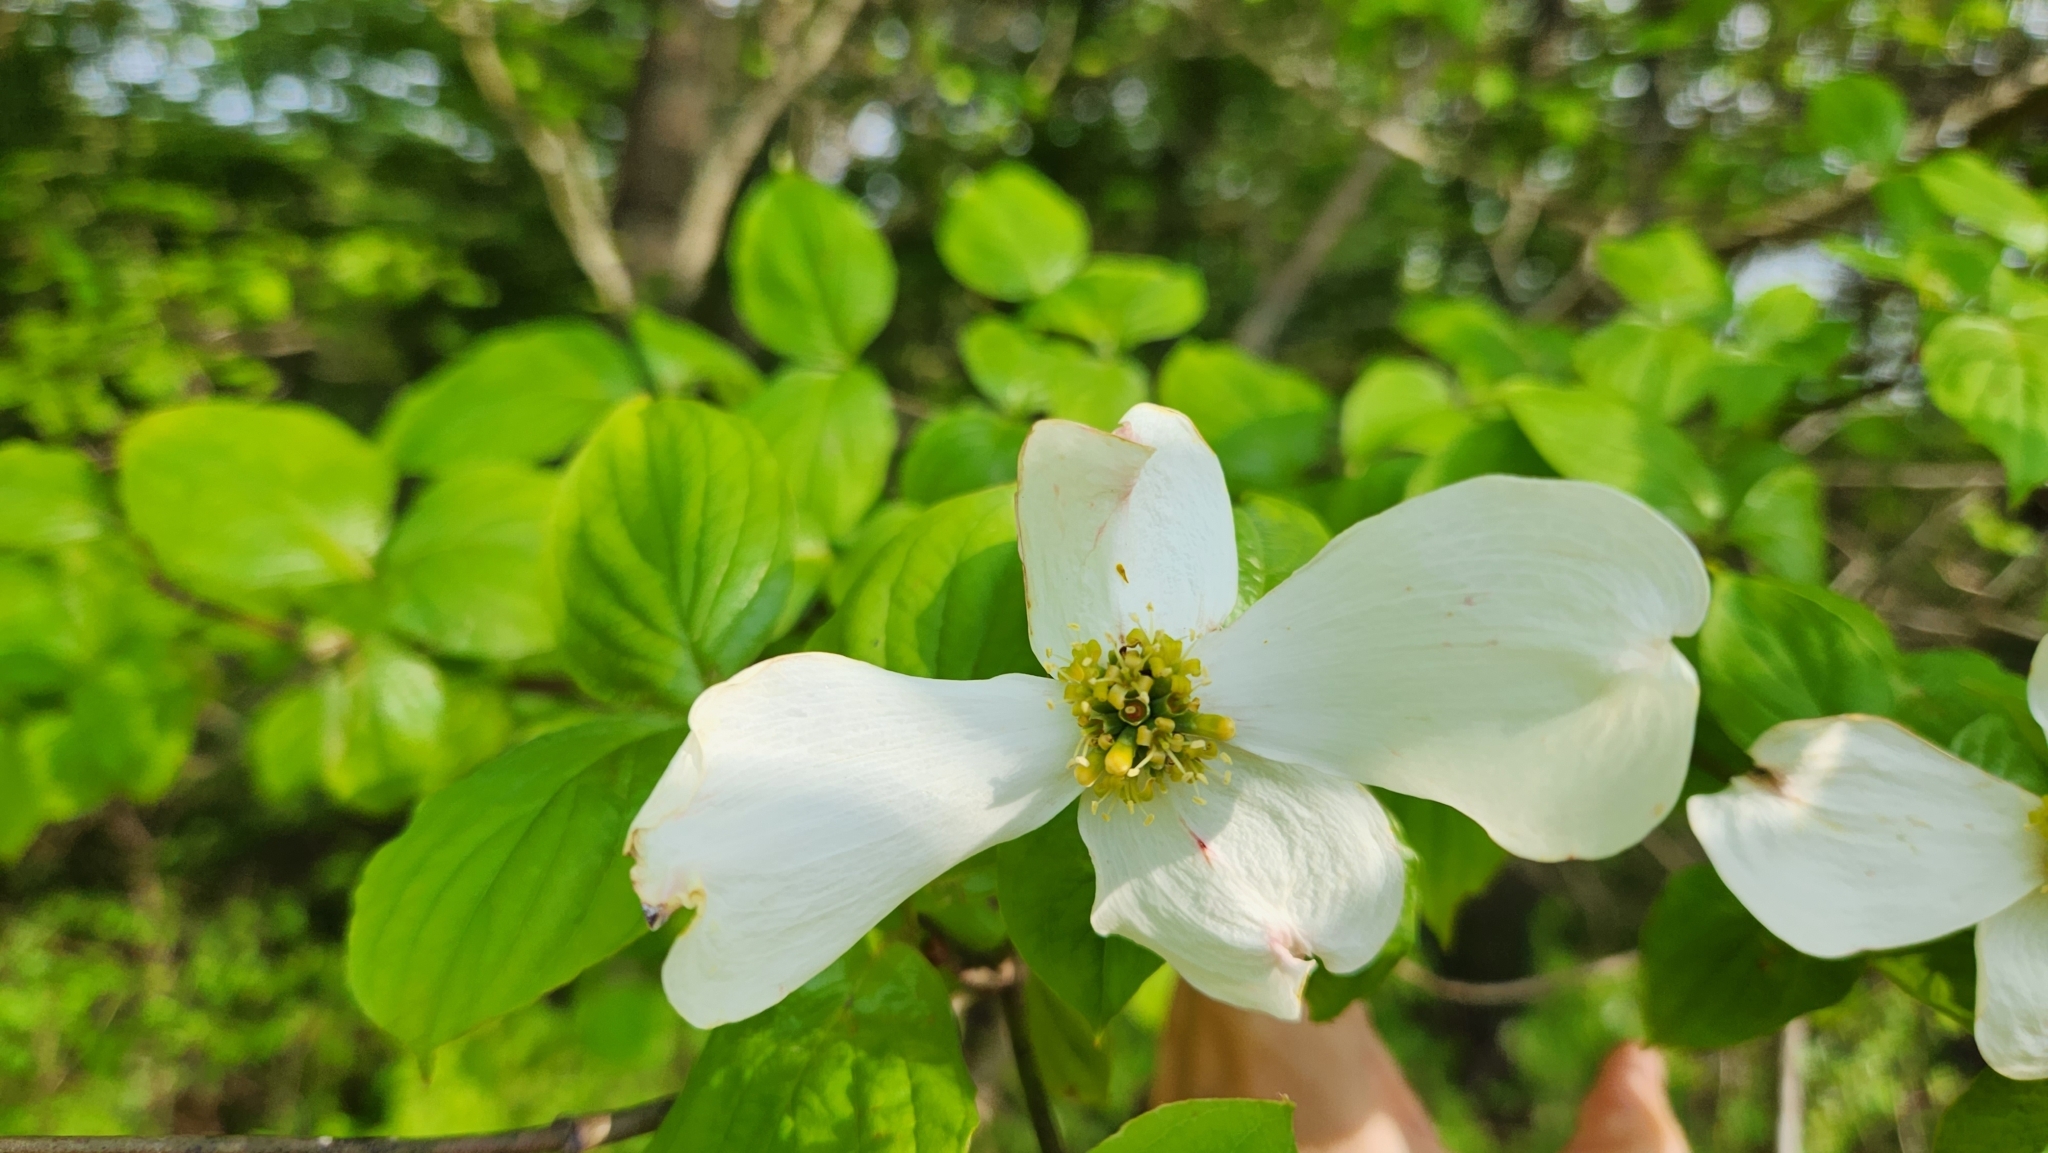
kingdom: Plantae
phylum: Tracheophyta
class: Magnoliopsida
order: Cornales
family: Cornaceae
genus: Cornus
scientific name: Cornus florida
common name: Flowering dogwood
